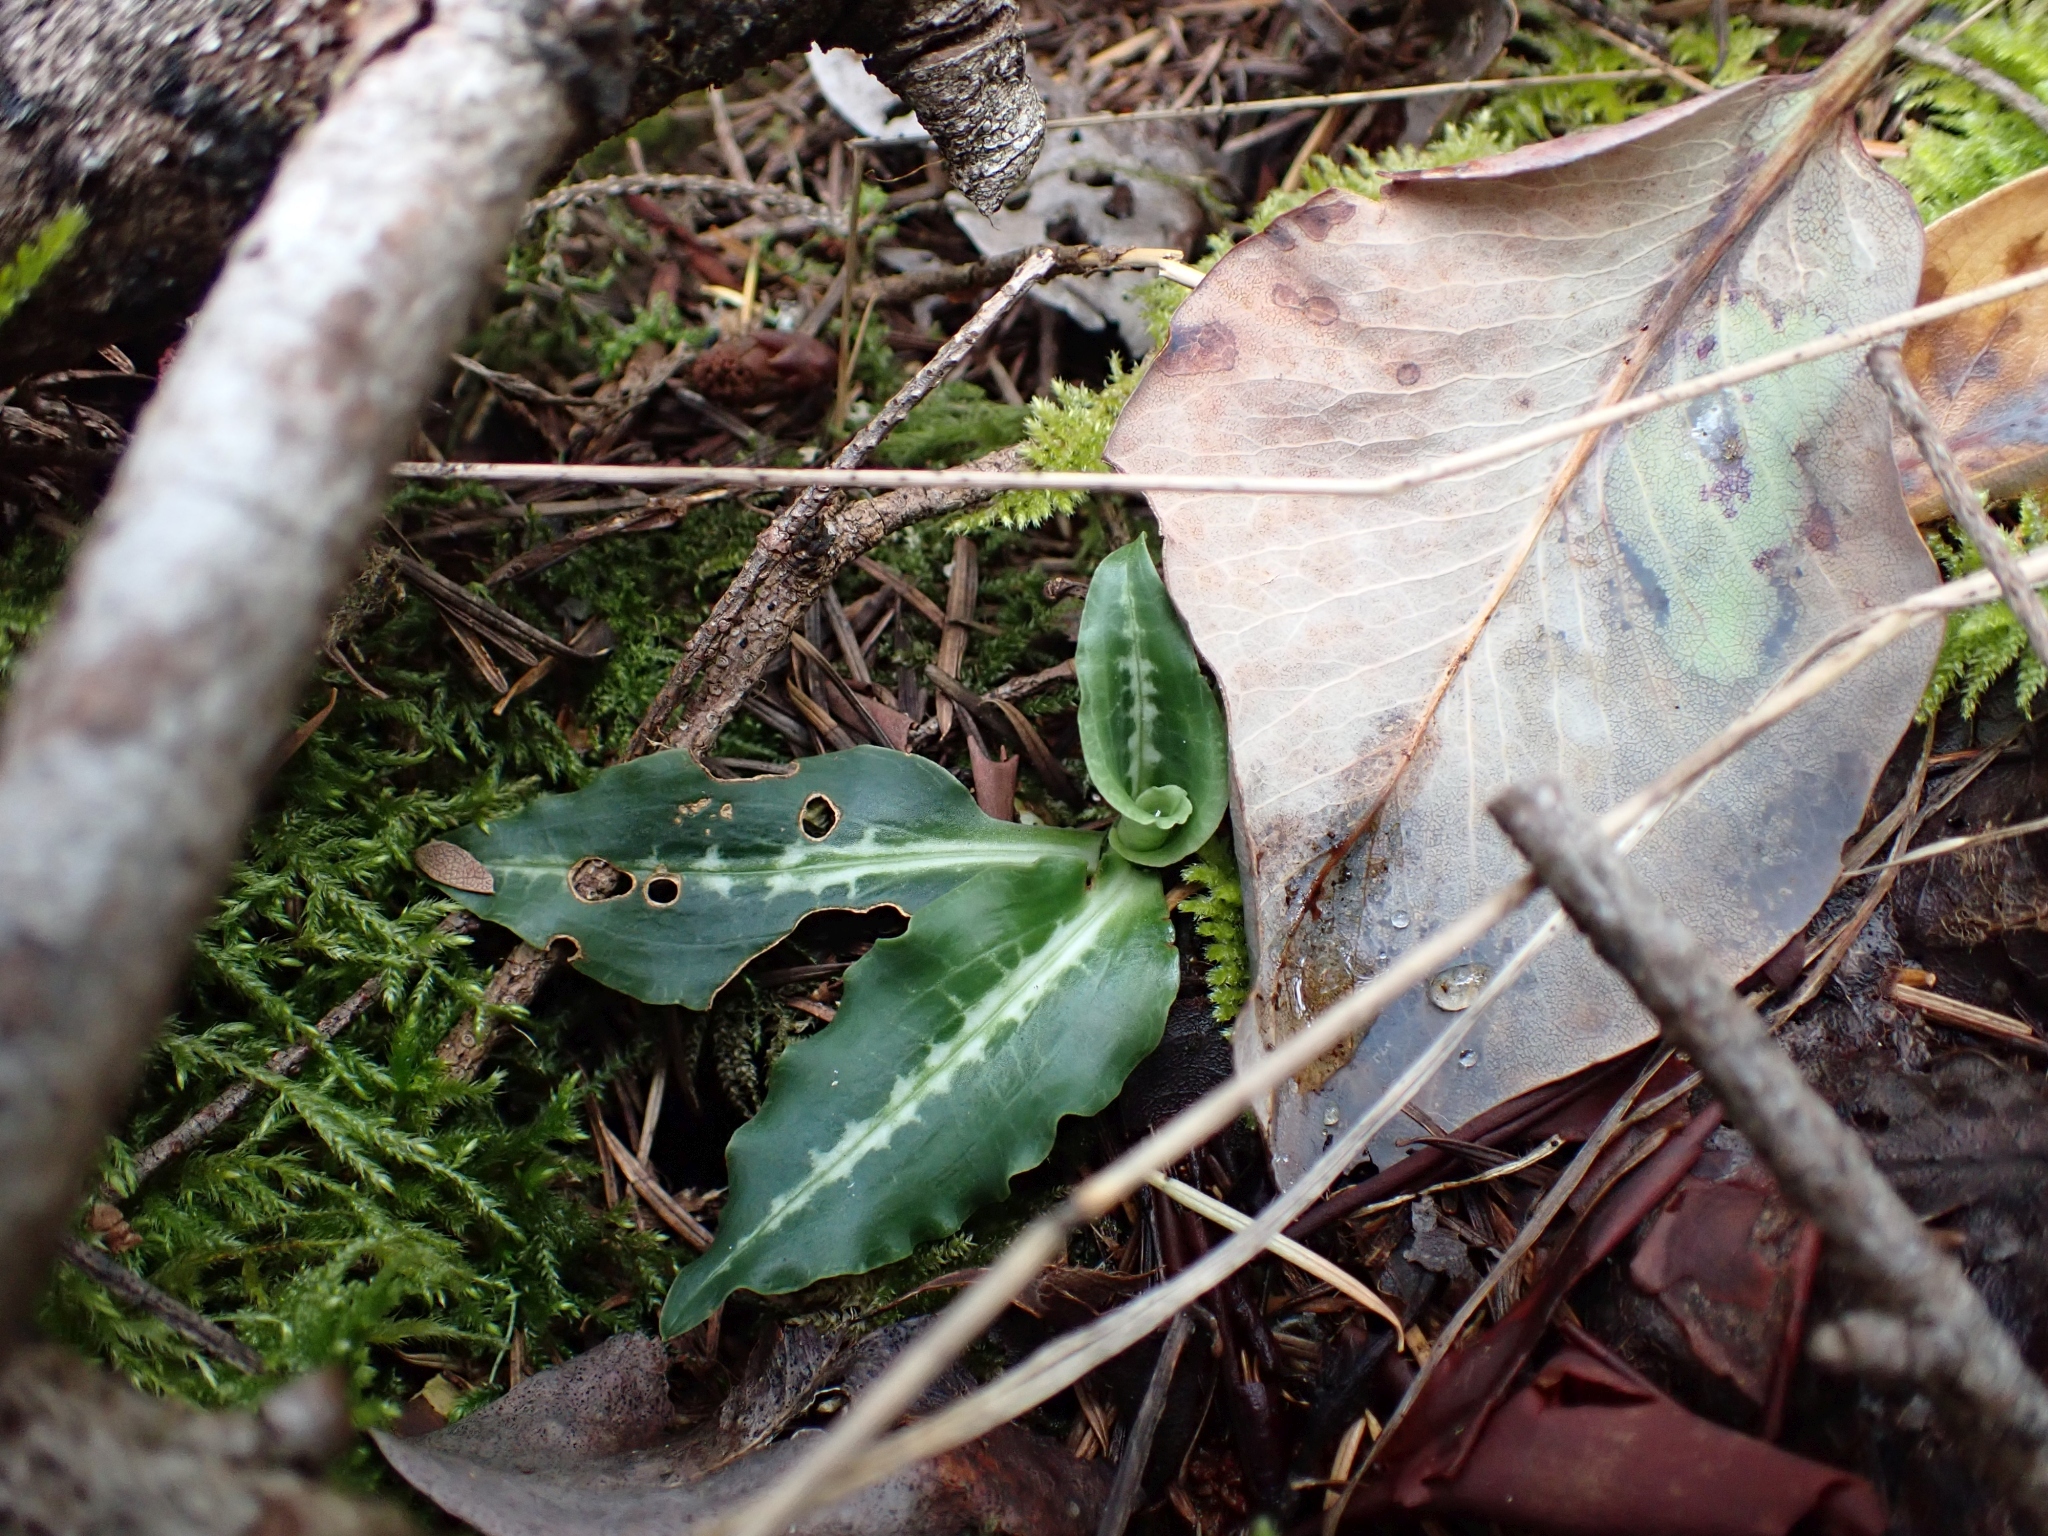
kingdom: Plantae
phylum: Tracheophyta
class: Liliopsida
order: Asparagales
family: Orchidaceae
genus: Goodyera
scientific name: Goodyera oblongifolia
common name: Giant rattlesnake-plantain
